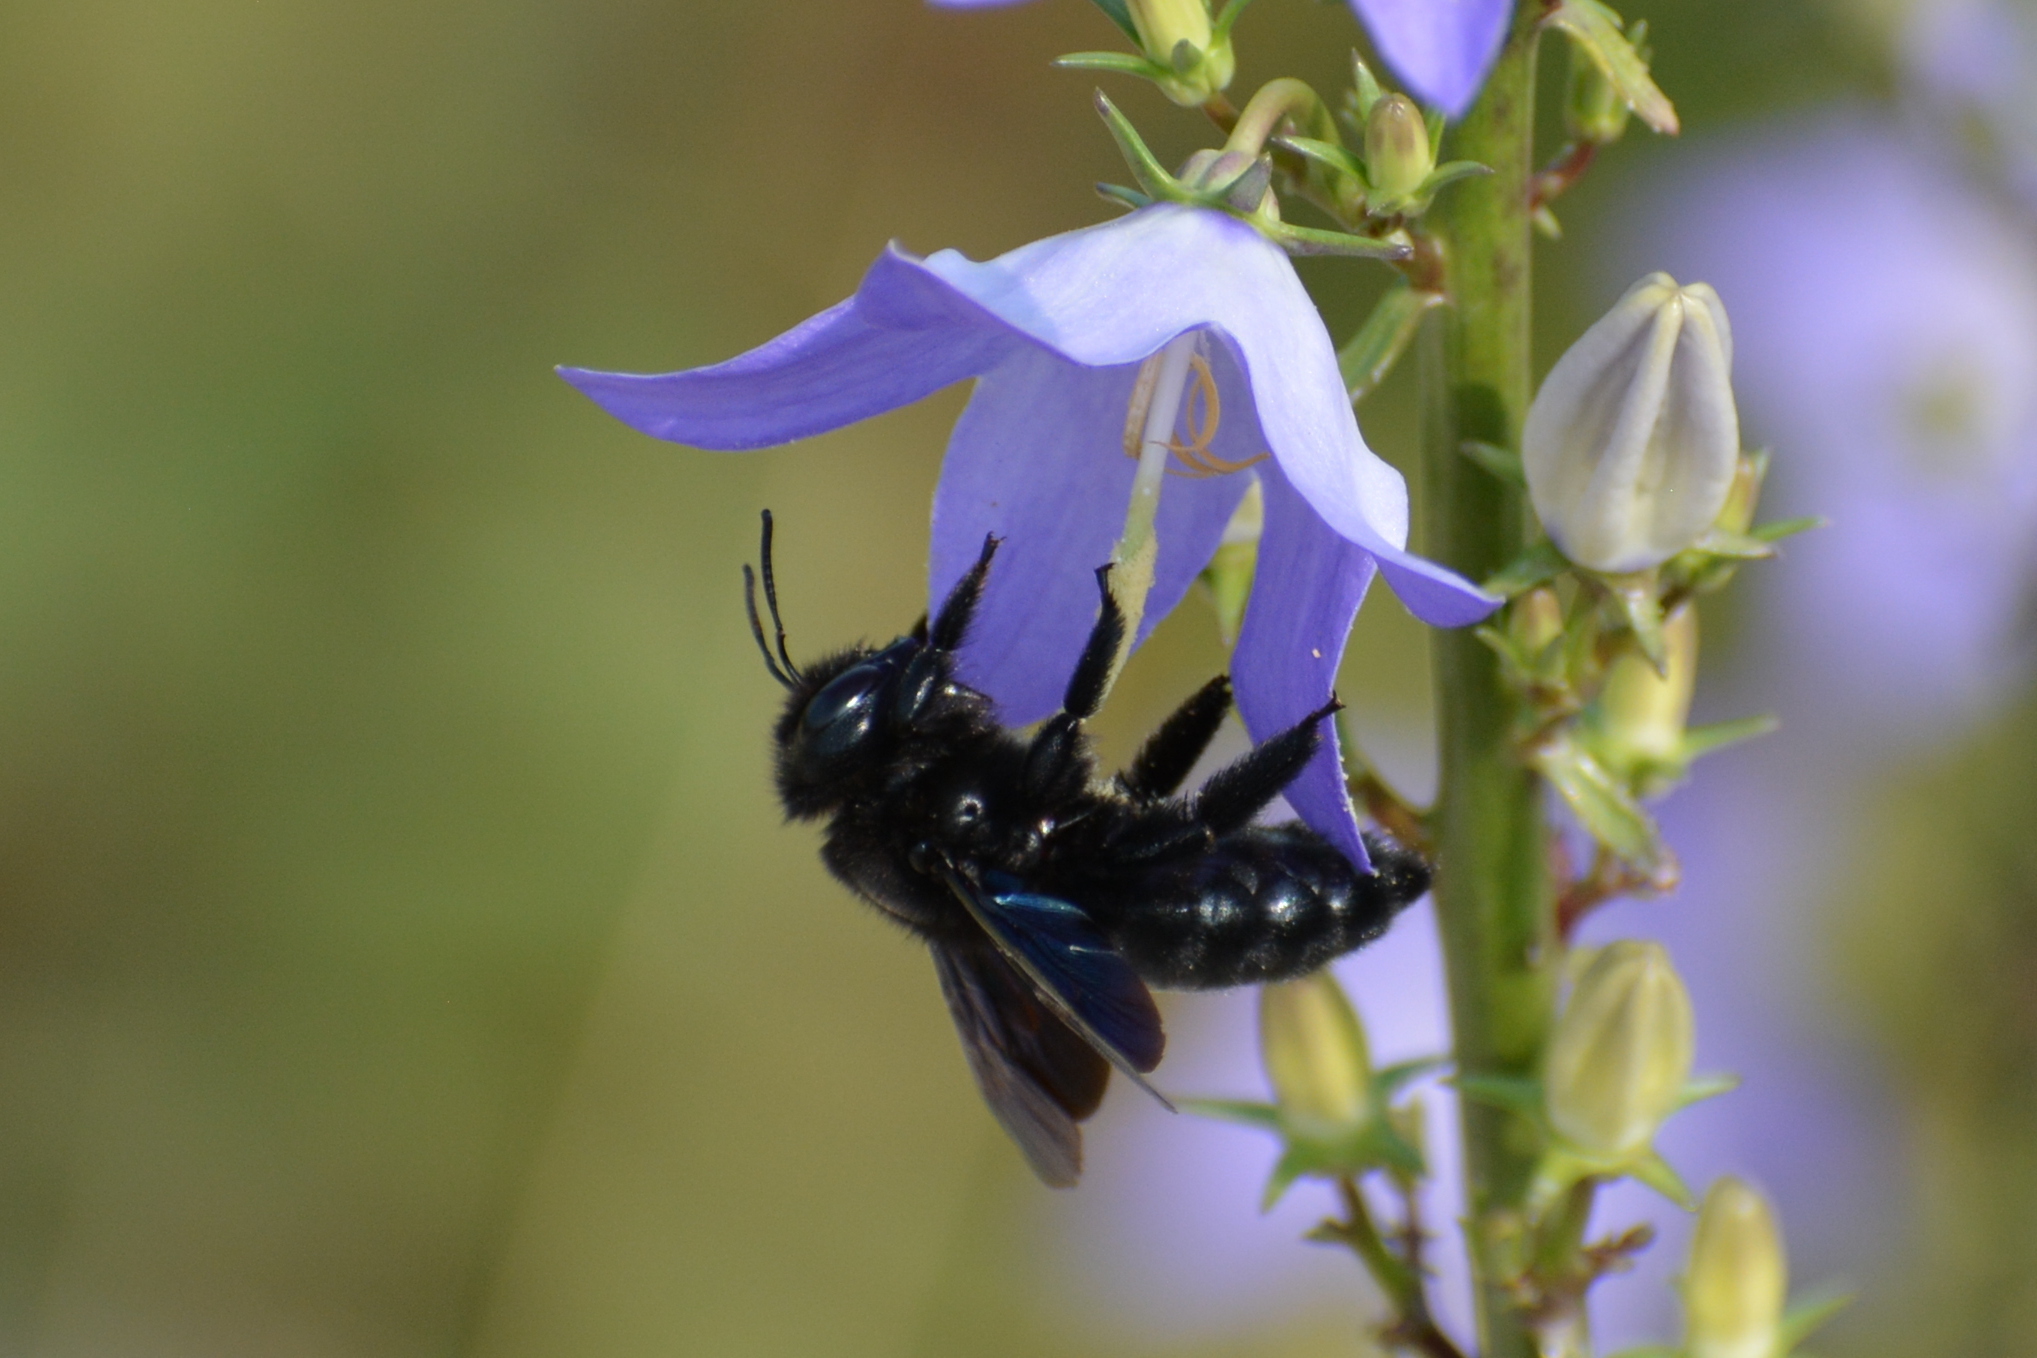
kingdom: Animalia
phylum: Arthropoda
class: Insecta
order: Hymenoptera
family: Apidae
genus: Xylocopa
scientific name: Xylocopa violacea
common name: Violet carpenter bee
